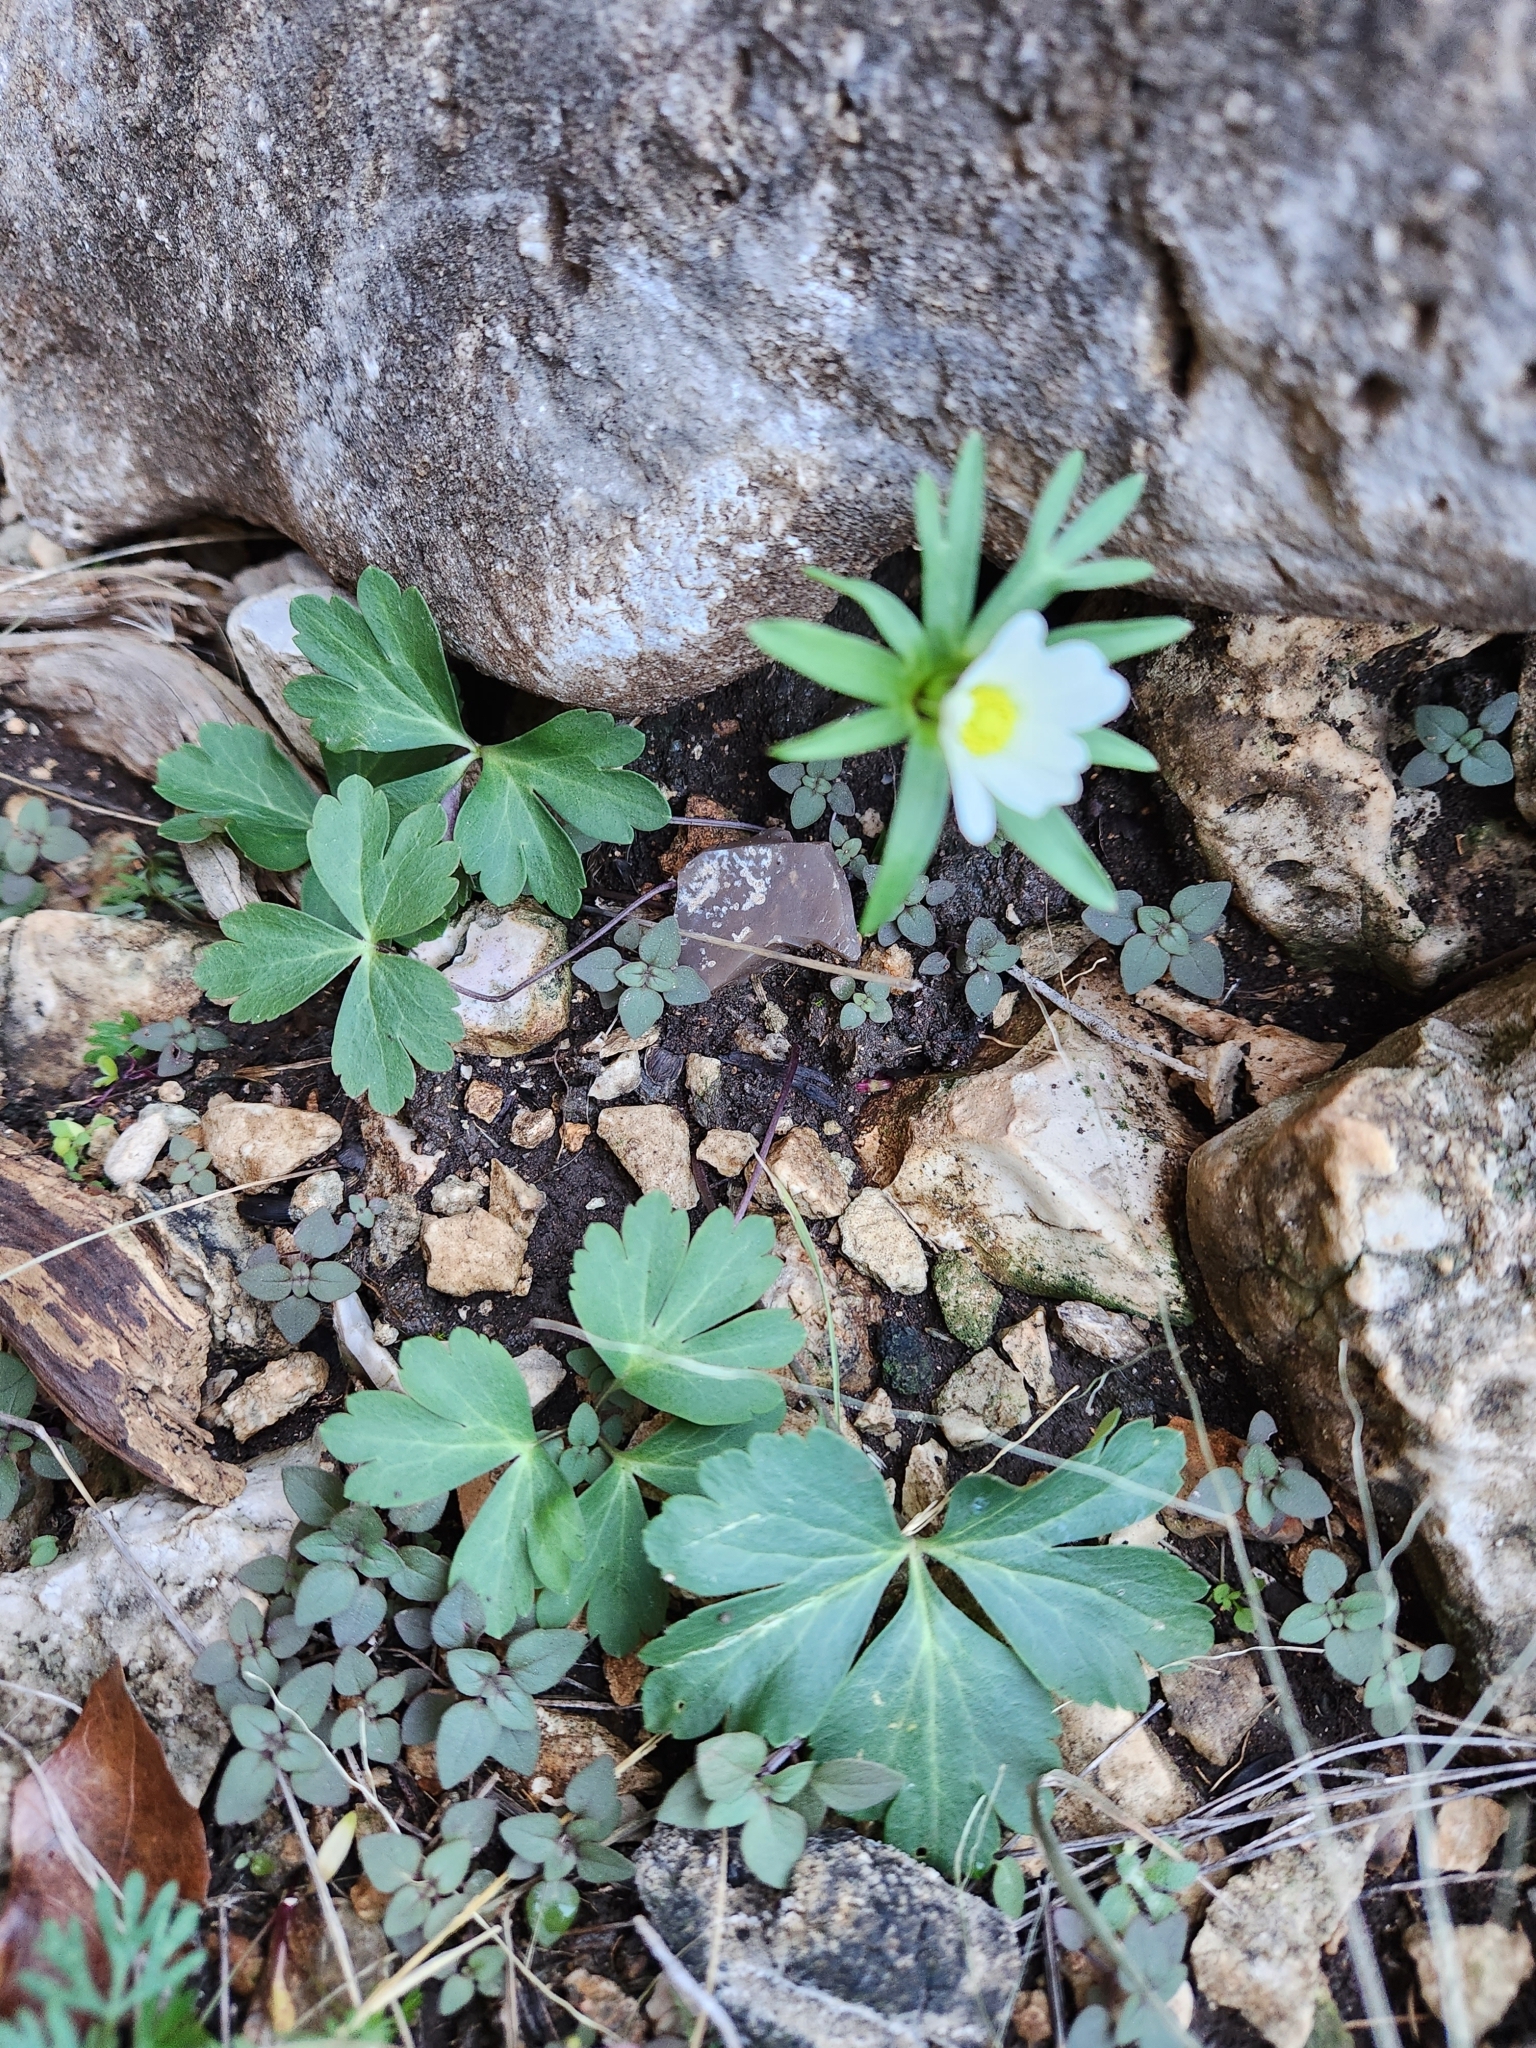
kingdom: Plantae
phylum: Tracheophyta
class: Magnoliopsida
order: Ranunculales
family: Ranunculaceae
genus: Anemone
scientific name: Anemone edwardsiana
